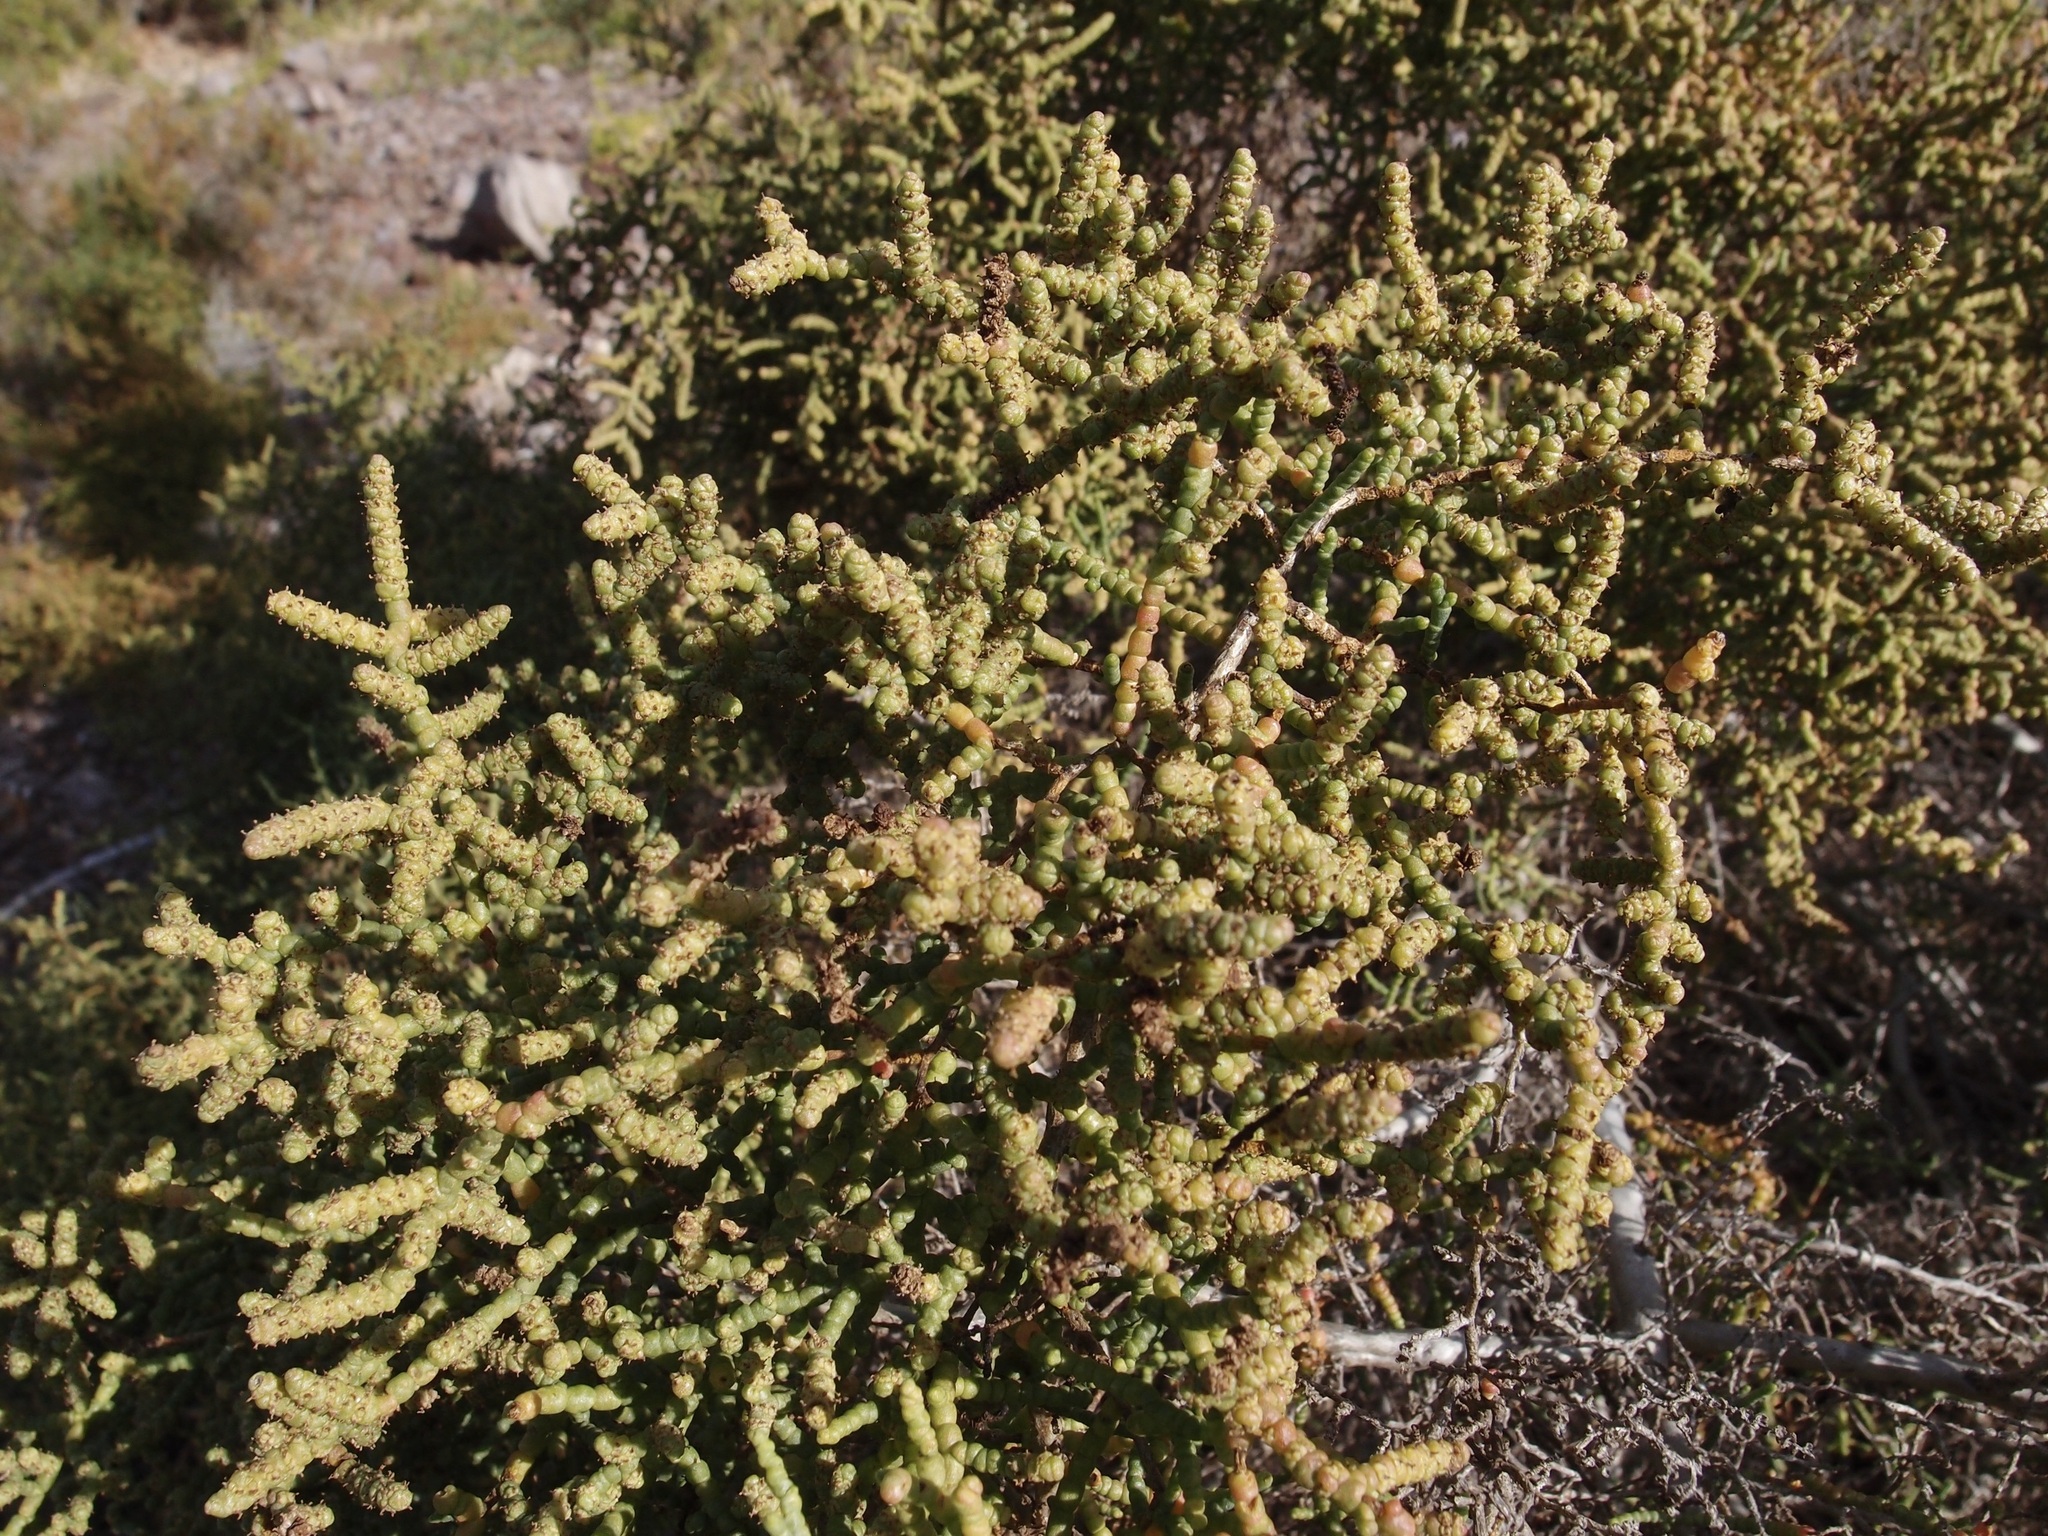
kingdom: Plantae
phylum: Tracheophyta
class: Magnoliopsida
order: Caryophyllales
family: Amaranthaceae
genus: Allenrolfea
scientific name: Allenrolfea occidentalis
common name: Iodine-bush
